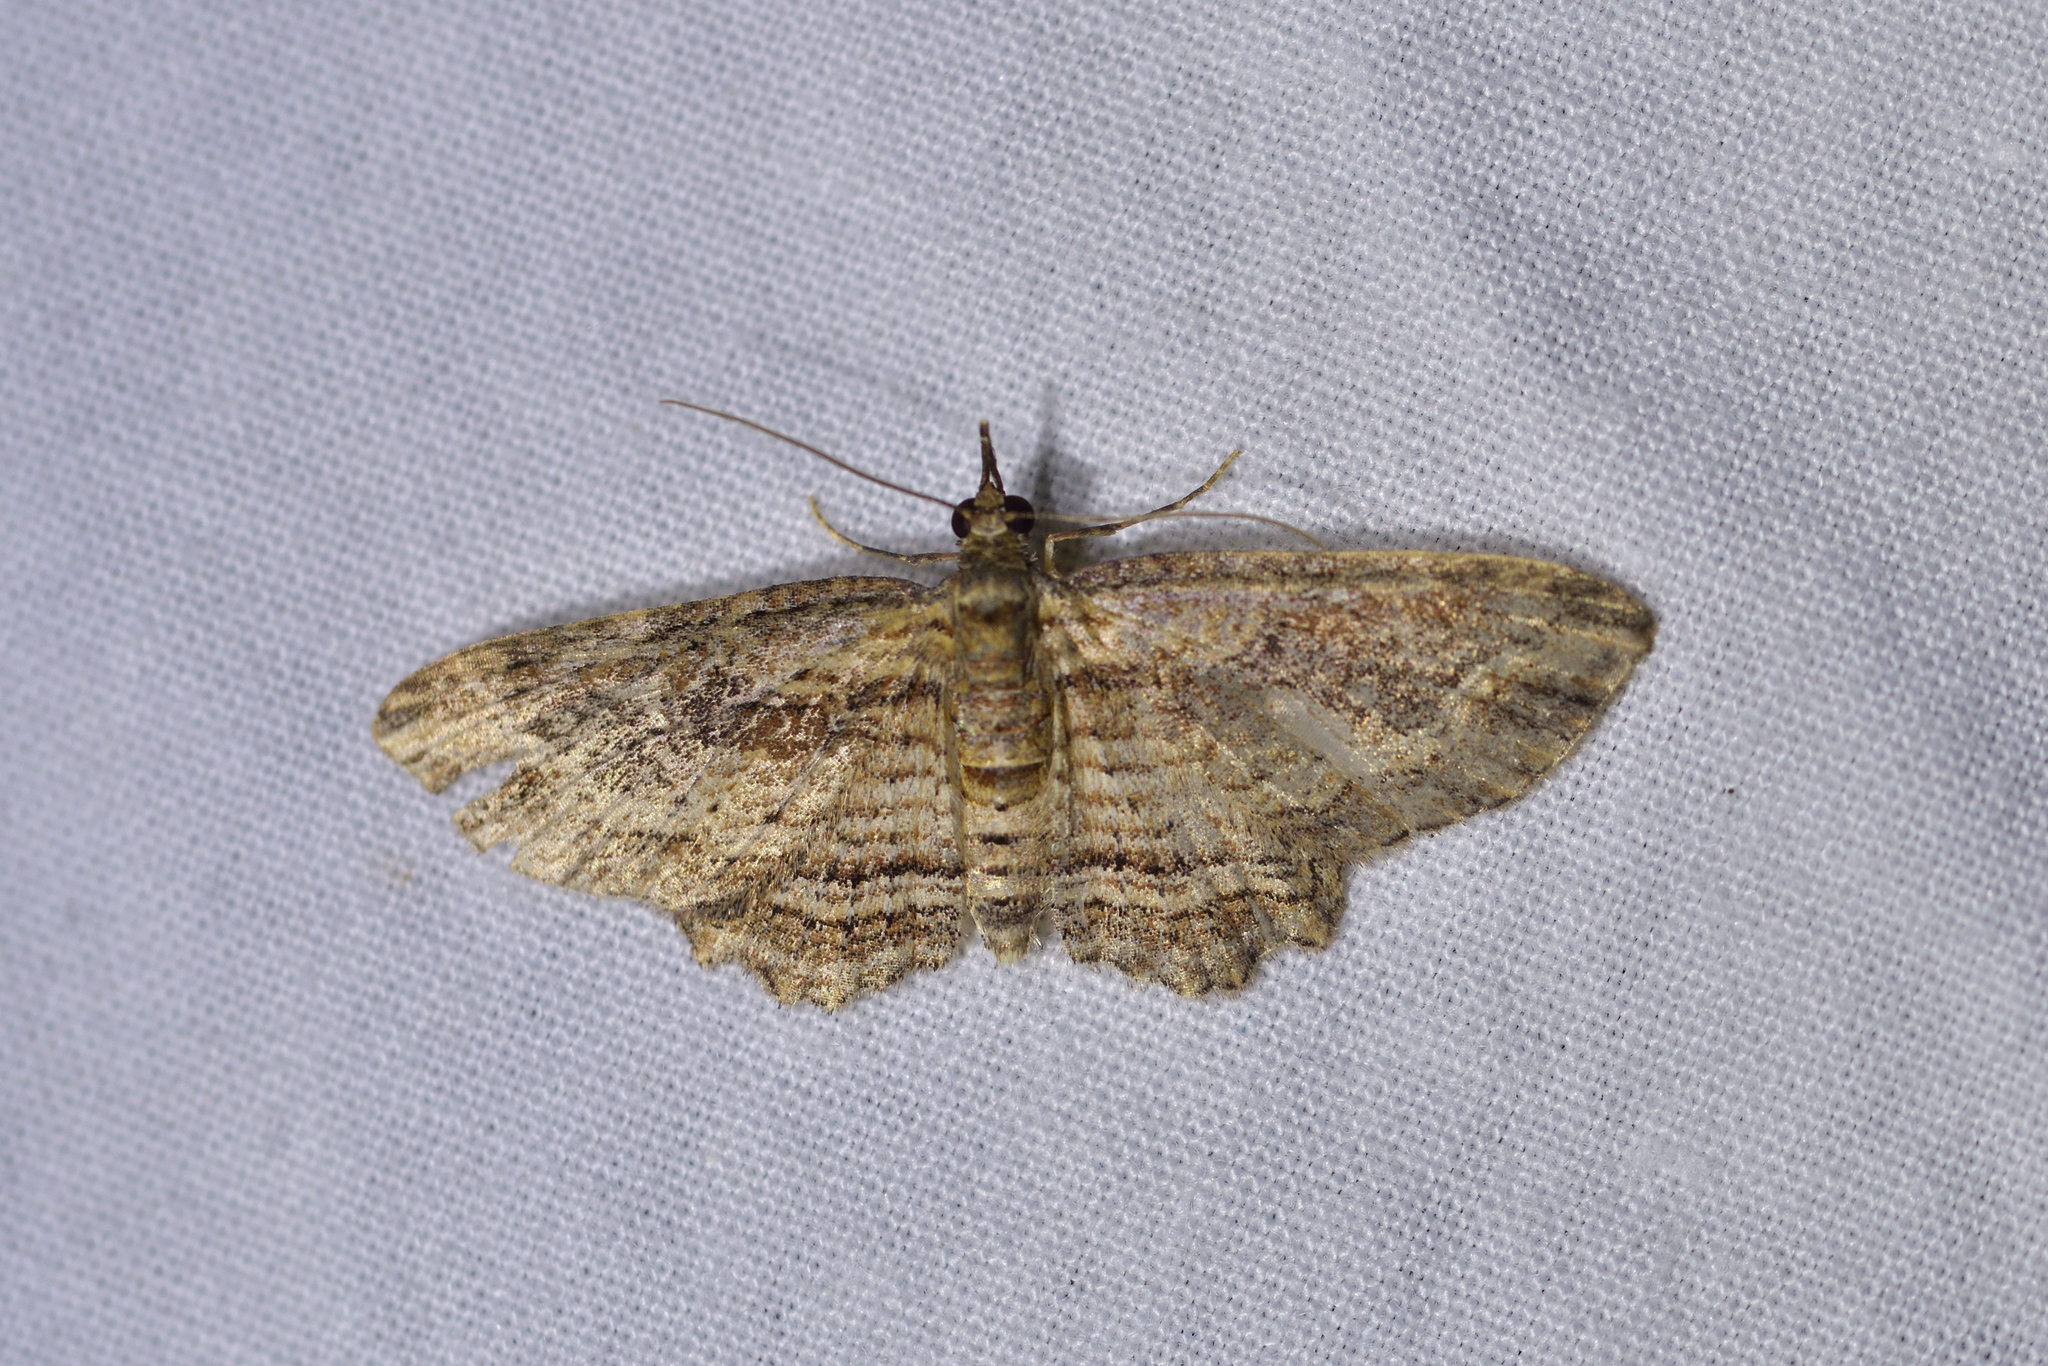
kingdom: Animalia
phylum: Arthropoda
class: Insecta
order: Lepidoptera
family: Geometridae
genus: Chloroclystis
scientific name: Chloroclystis filata
